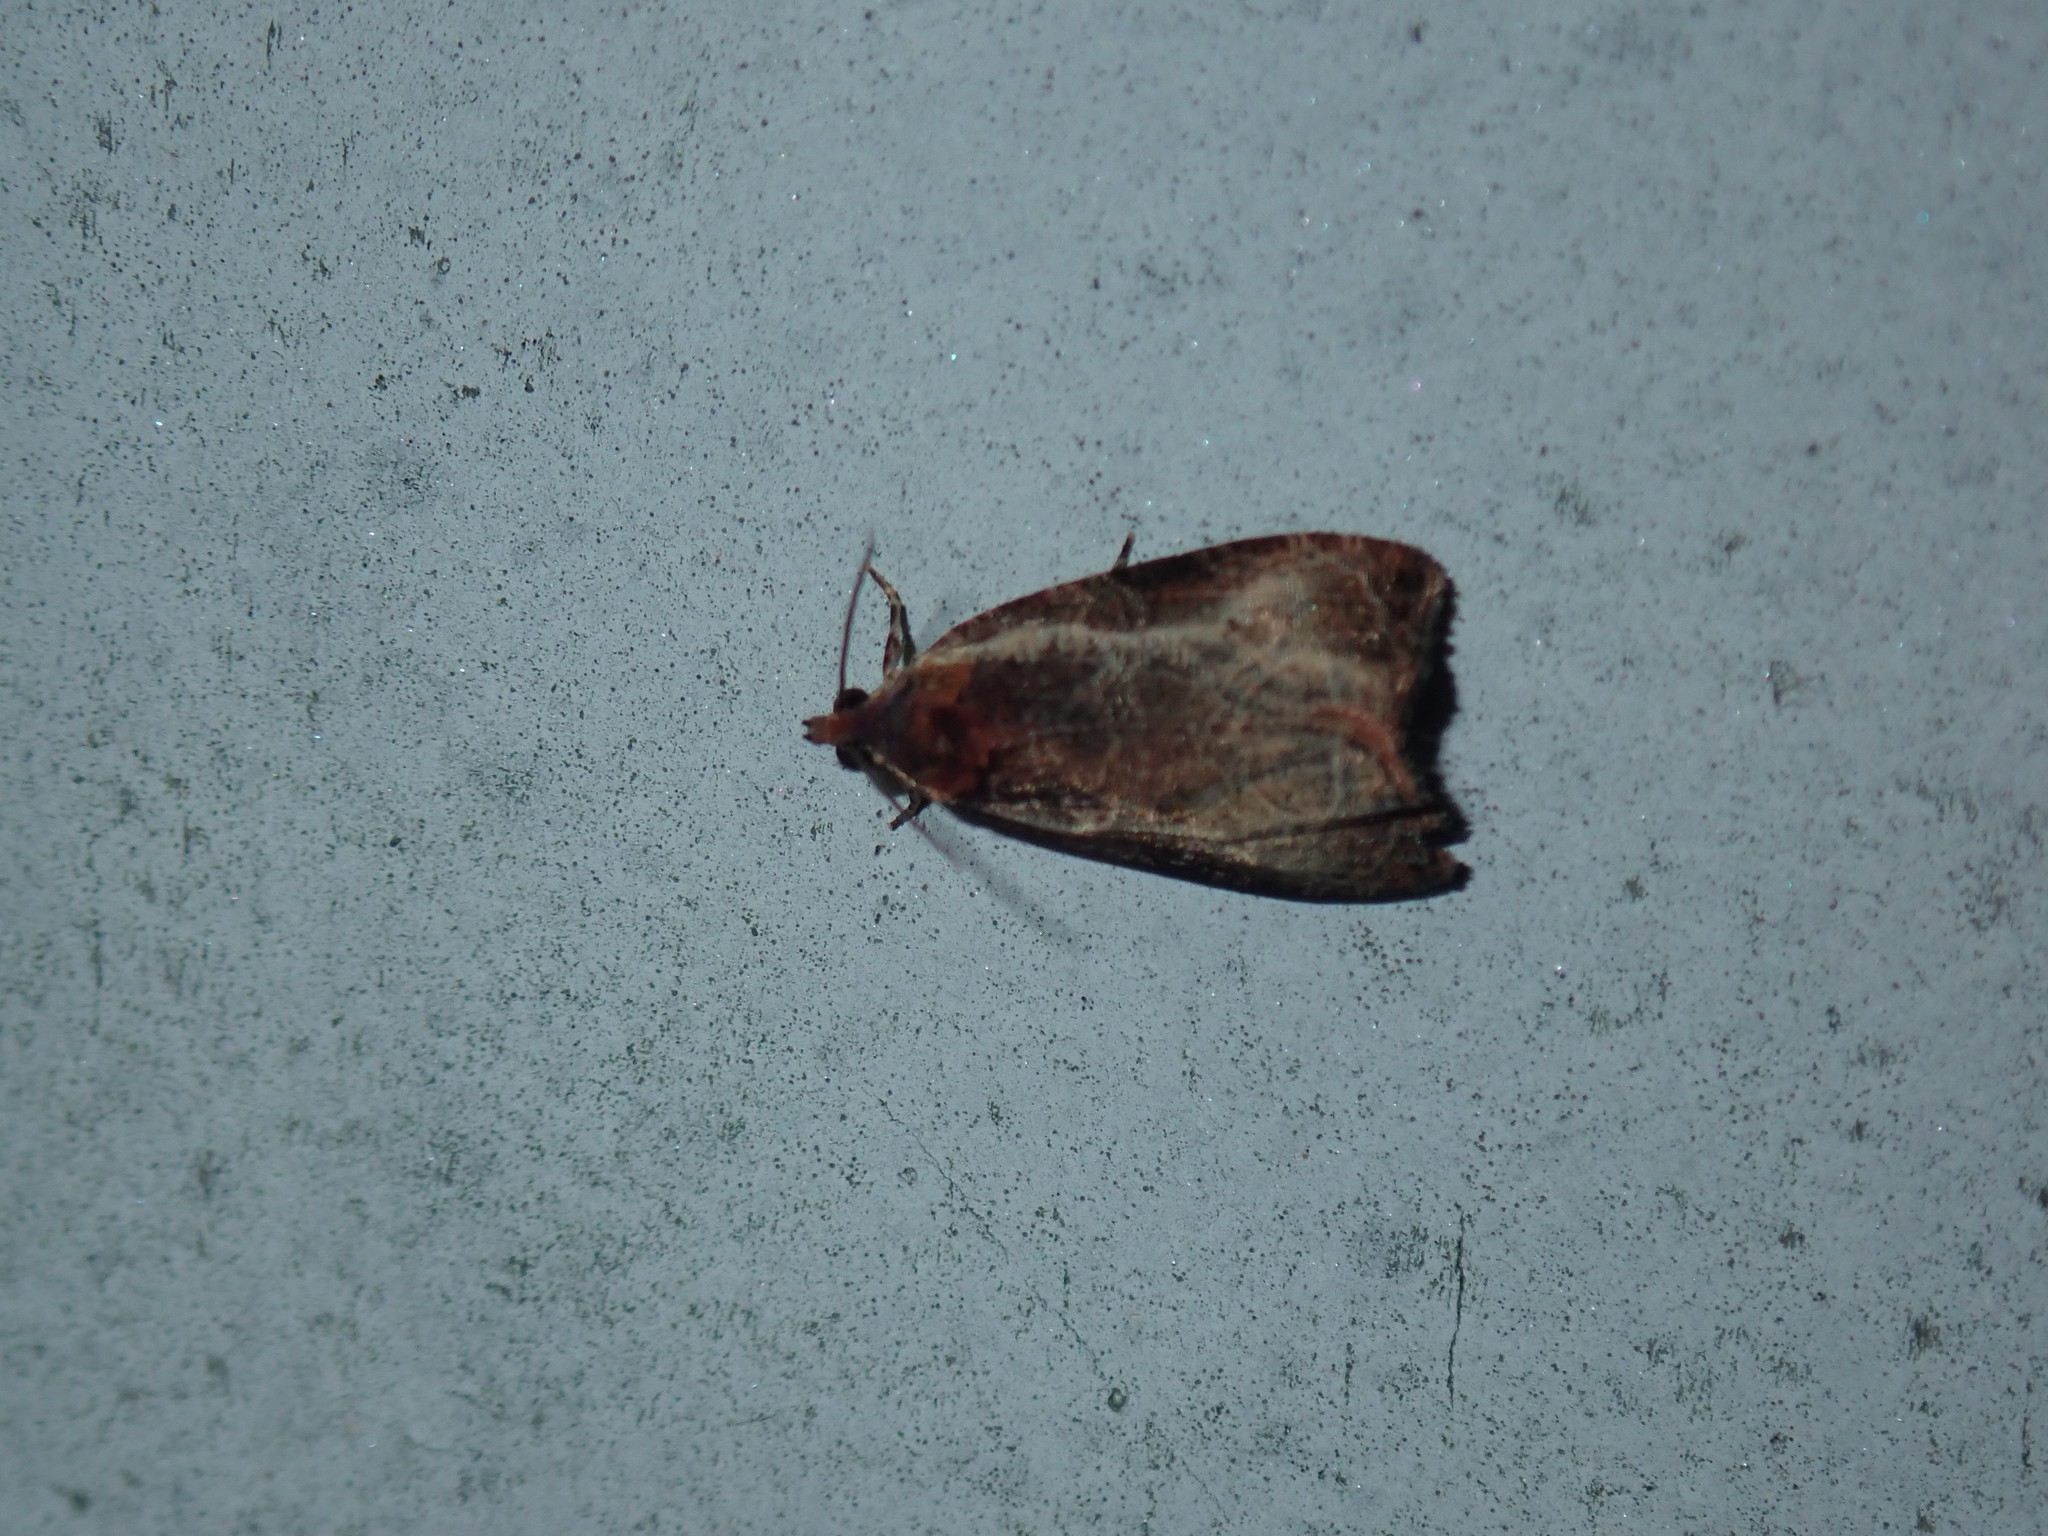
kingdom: Animalia
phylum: Arthropoda
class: Insecta
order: Lepidoptera
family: Tortricidae
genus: Olethreutes
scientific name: Olethreutes inornatana
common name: Inornate olethreutes moth
